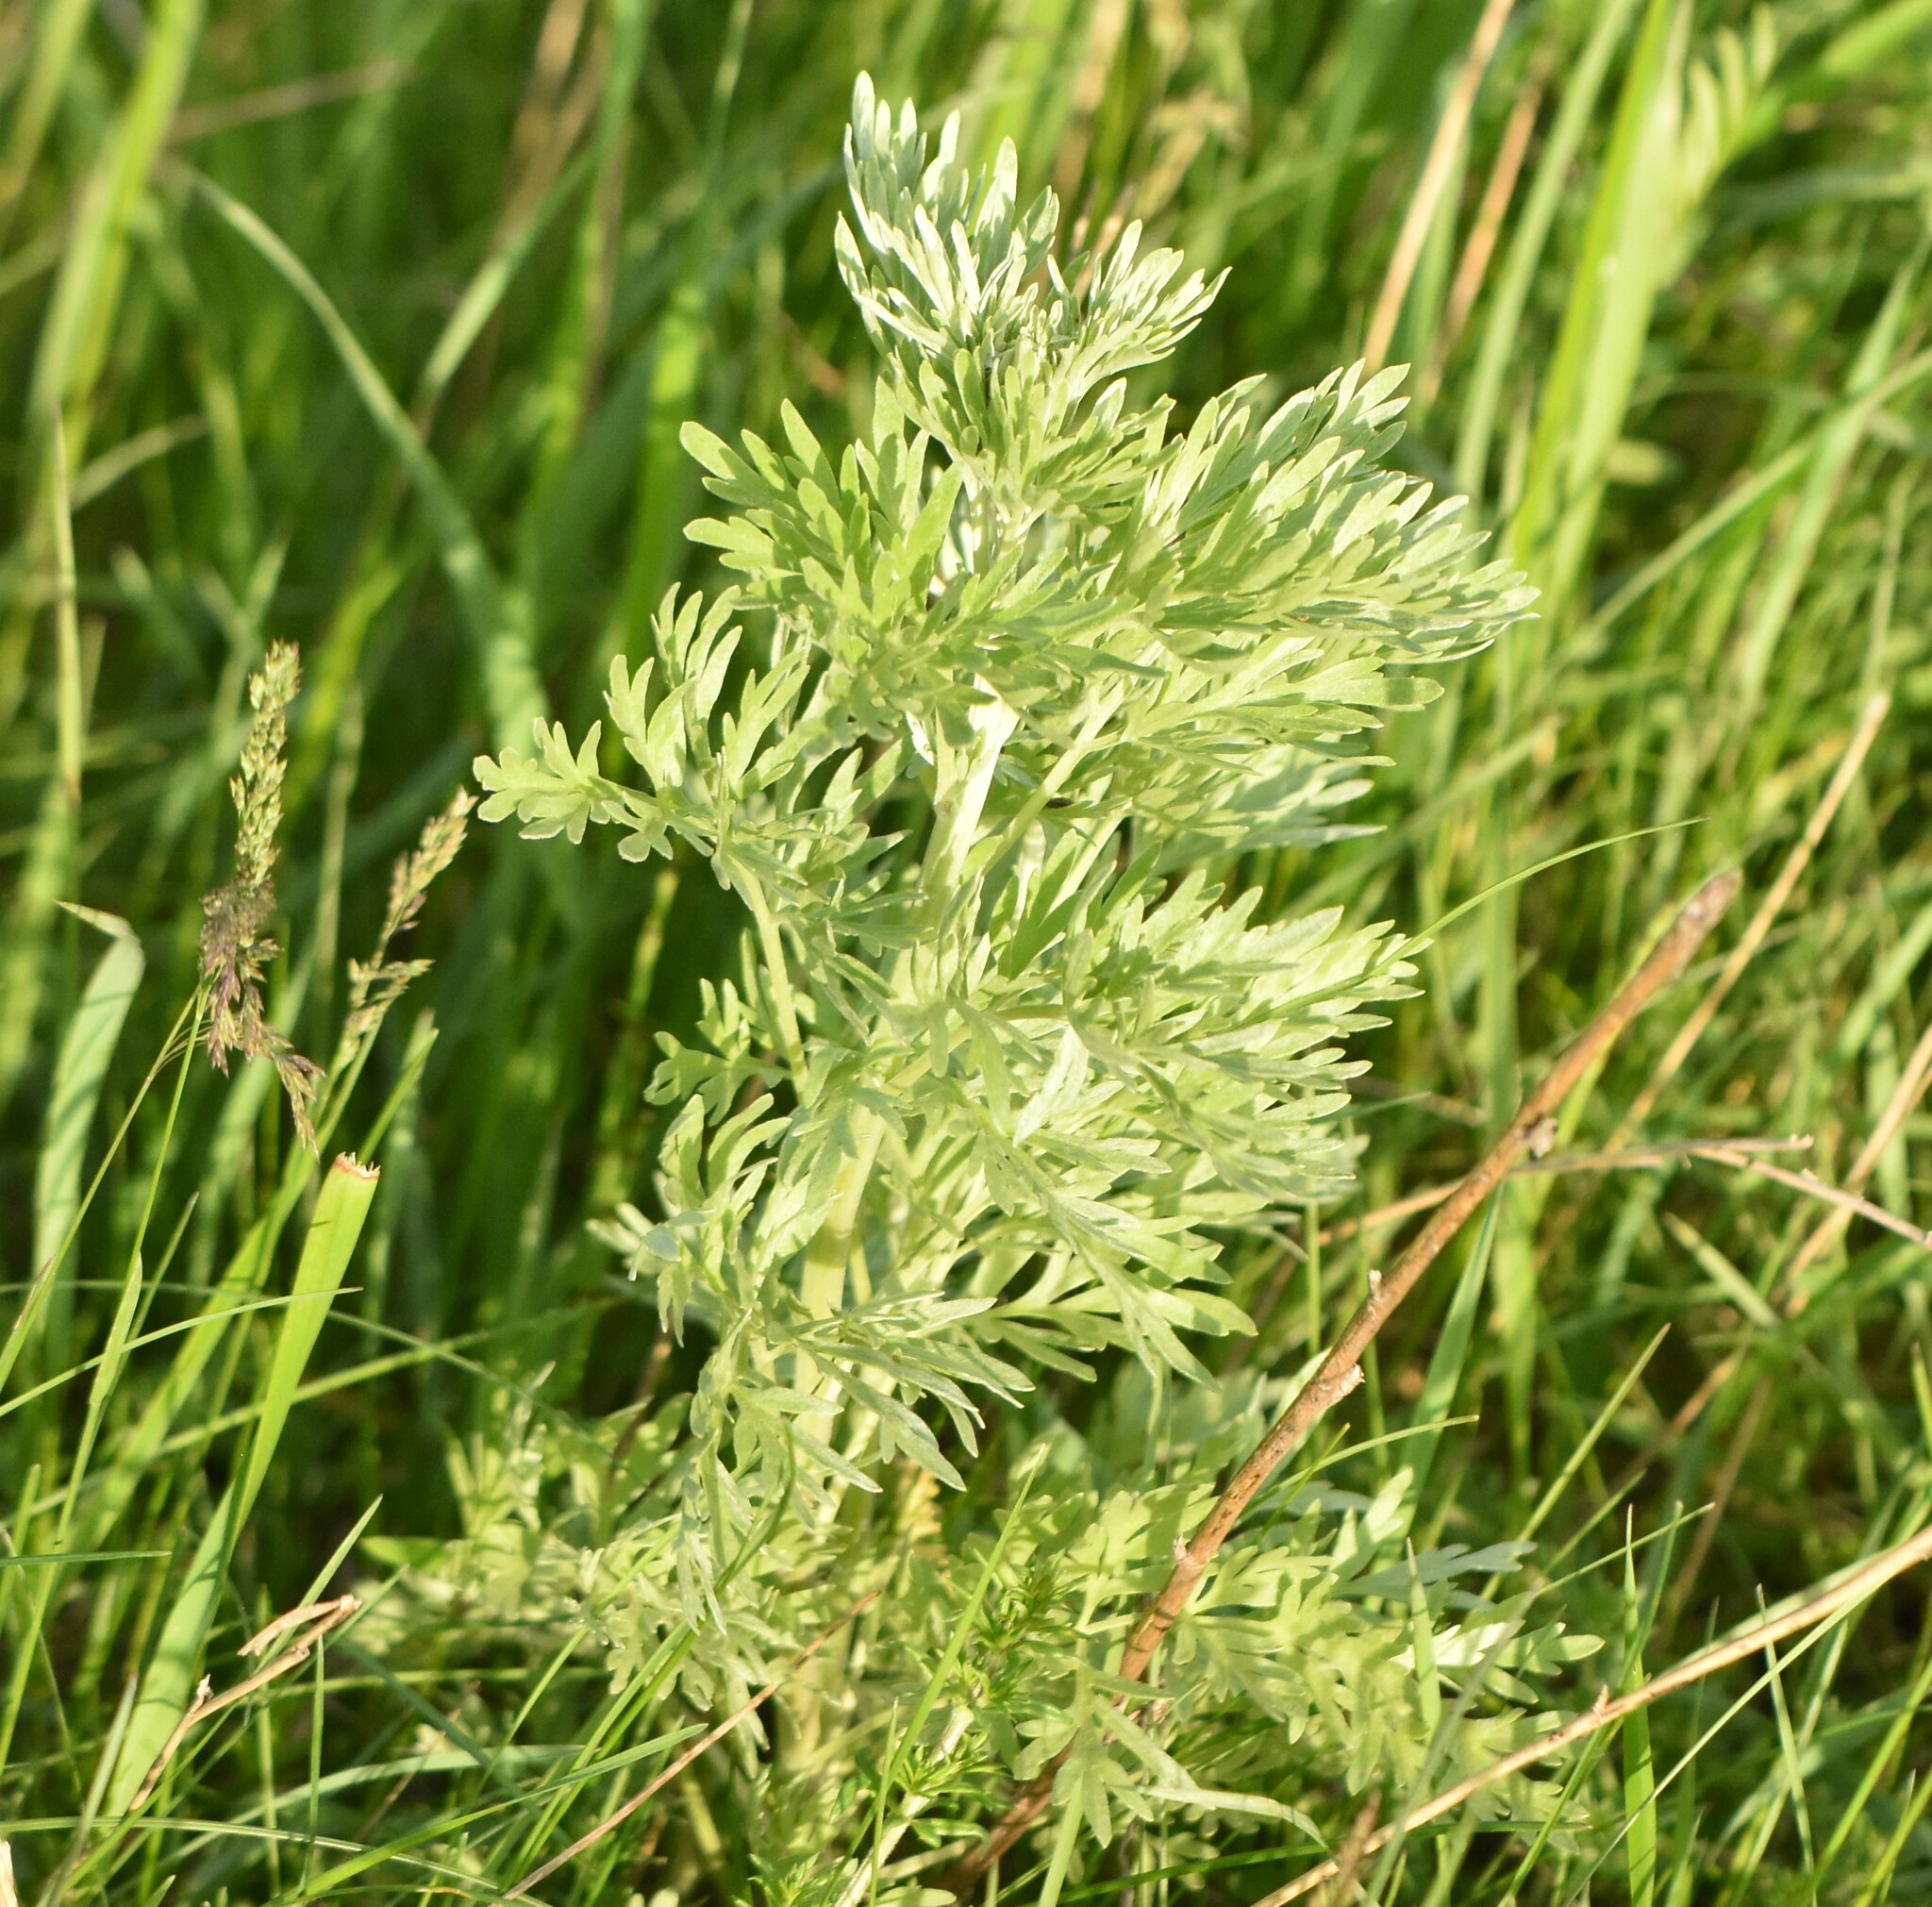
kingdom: Plantae
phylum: Tracheophyta
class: Magnoliopsida
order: Asterales
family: Asteraceae
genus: Artemisia
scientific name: Artemisia absinthium
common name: Wormwood
